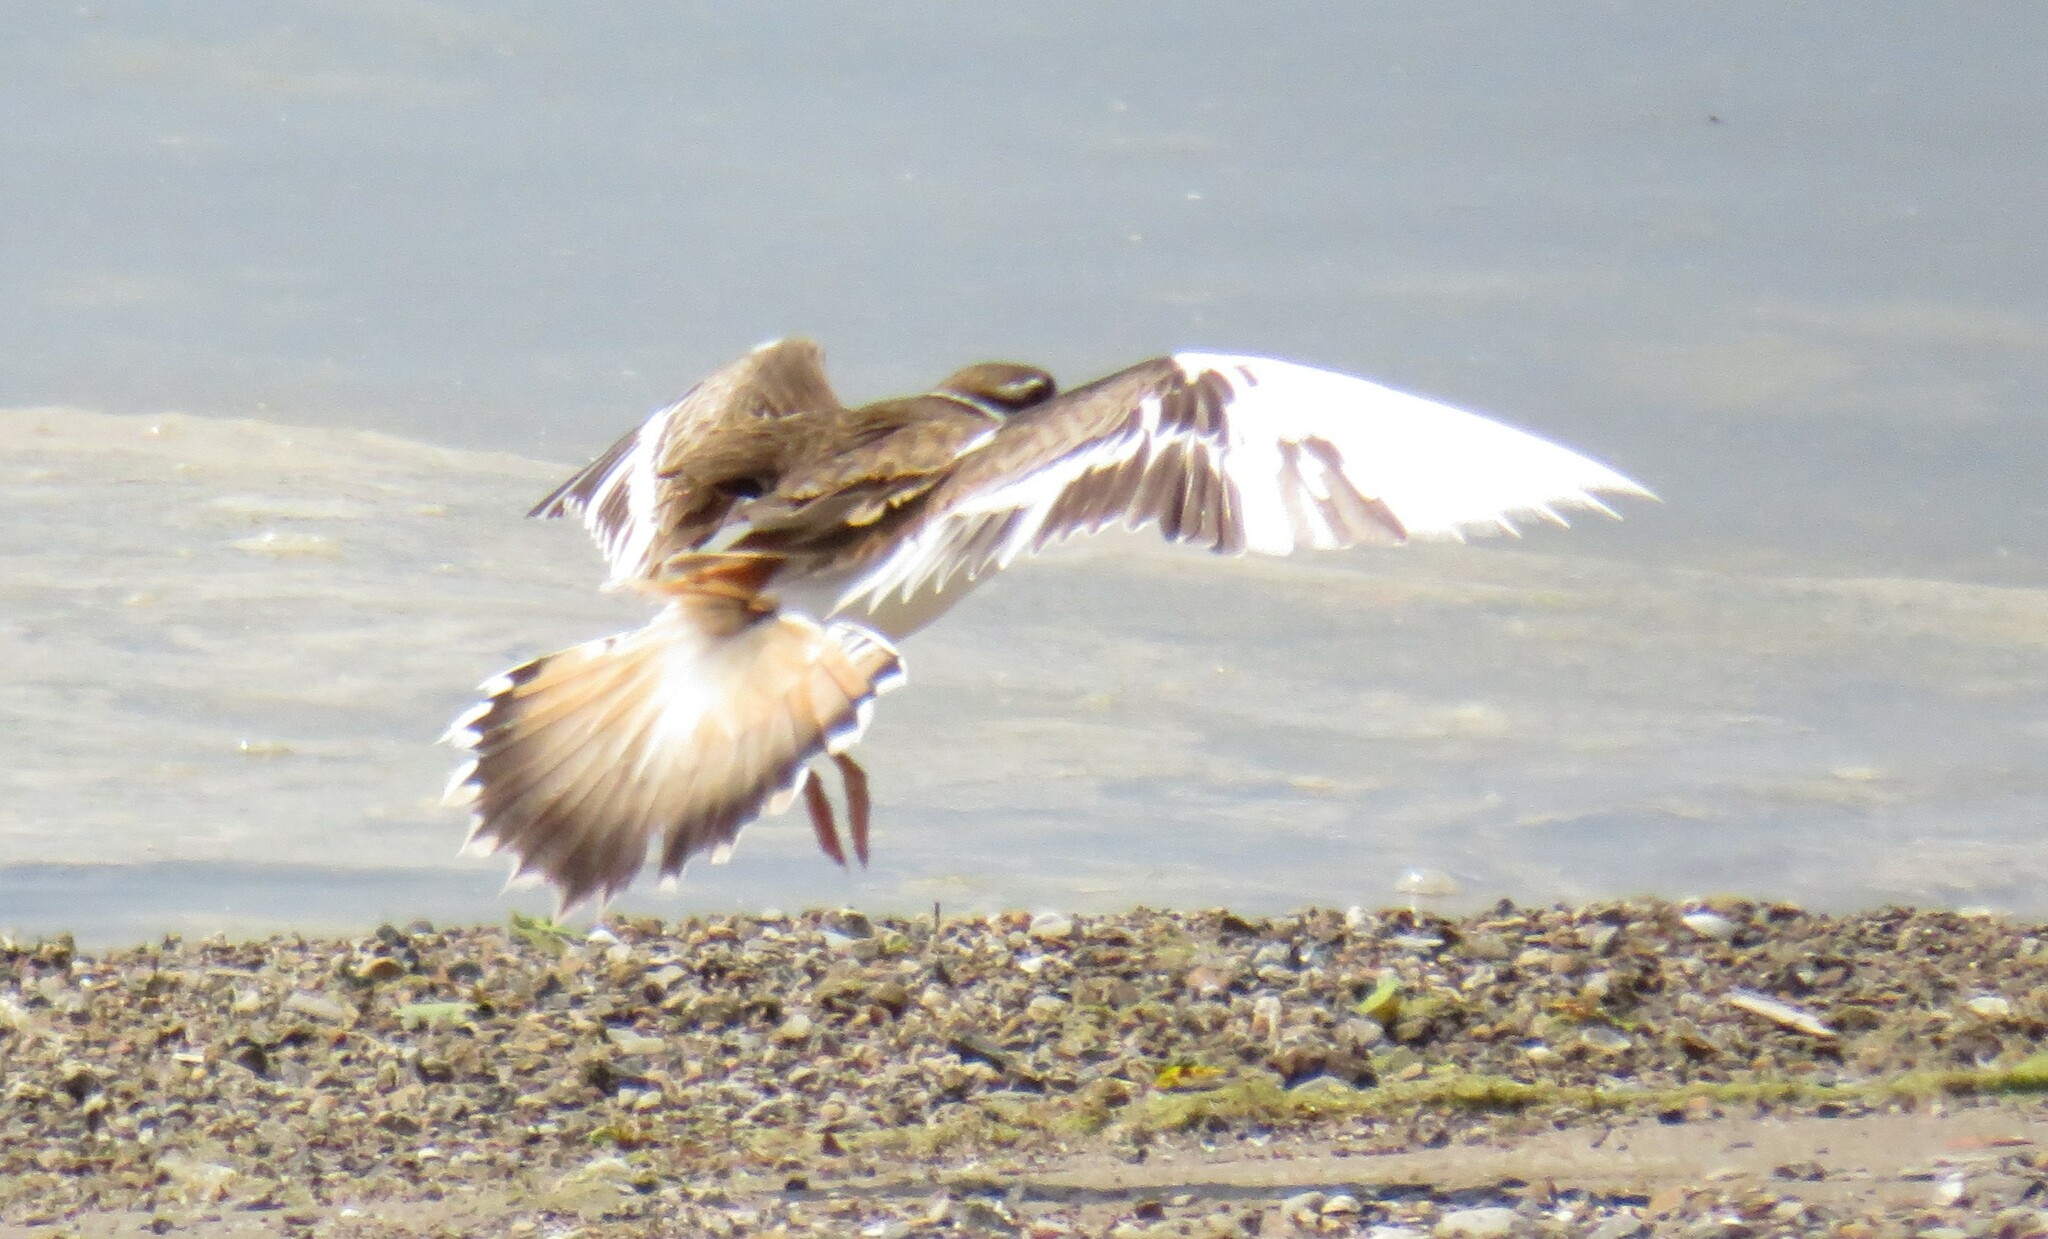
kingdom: Animalia
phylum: Chordata
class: Aves
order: Charadriiformes
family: Charadriidae
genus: Charadrius
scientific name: Charadrius vociferus
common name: Killdeer
